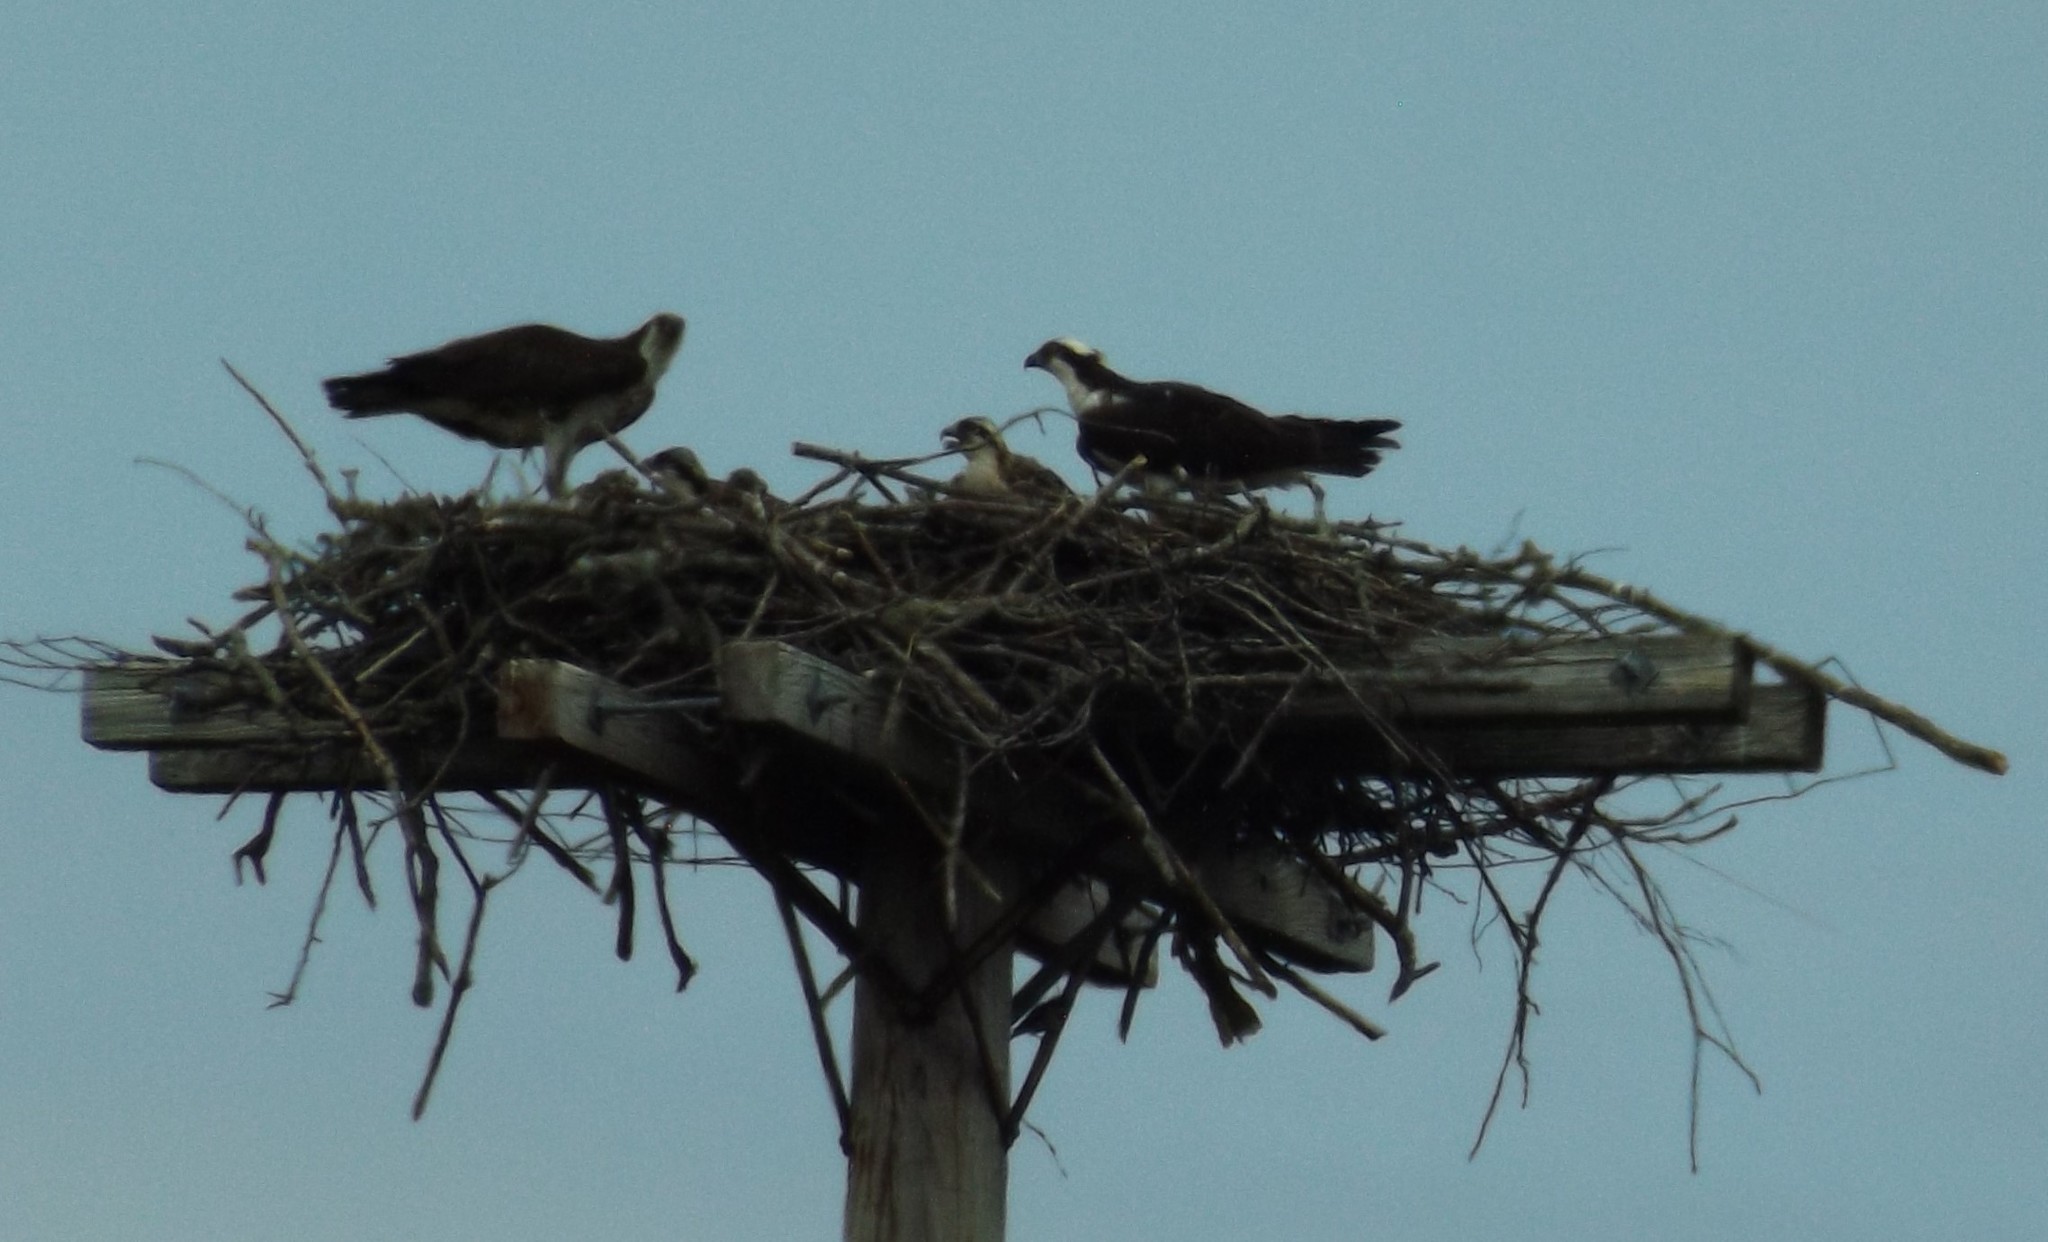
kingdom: Animalia
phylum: Chordata
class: Aves
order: Accipitriformes
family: Pandionidae
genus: Pandion
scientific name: Pandion haliaetus
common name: Osprey
